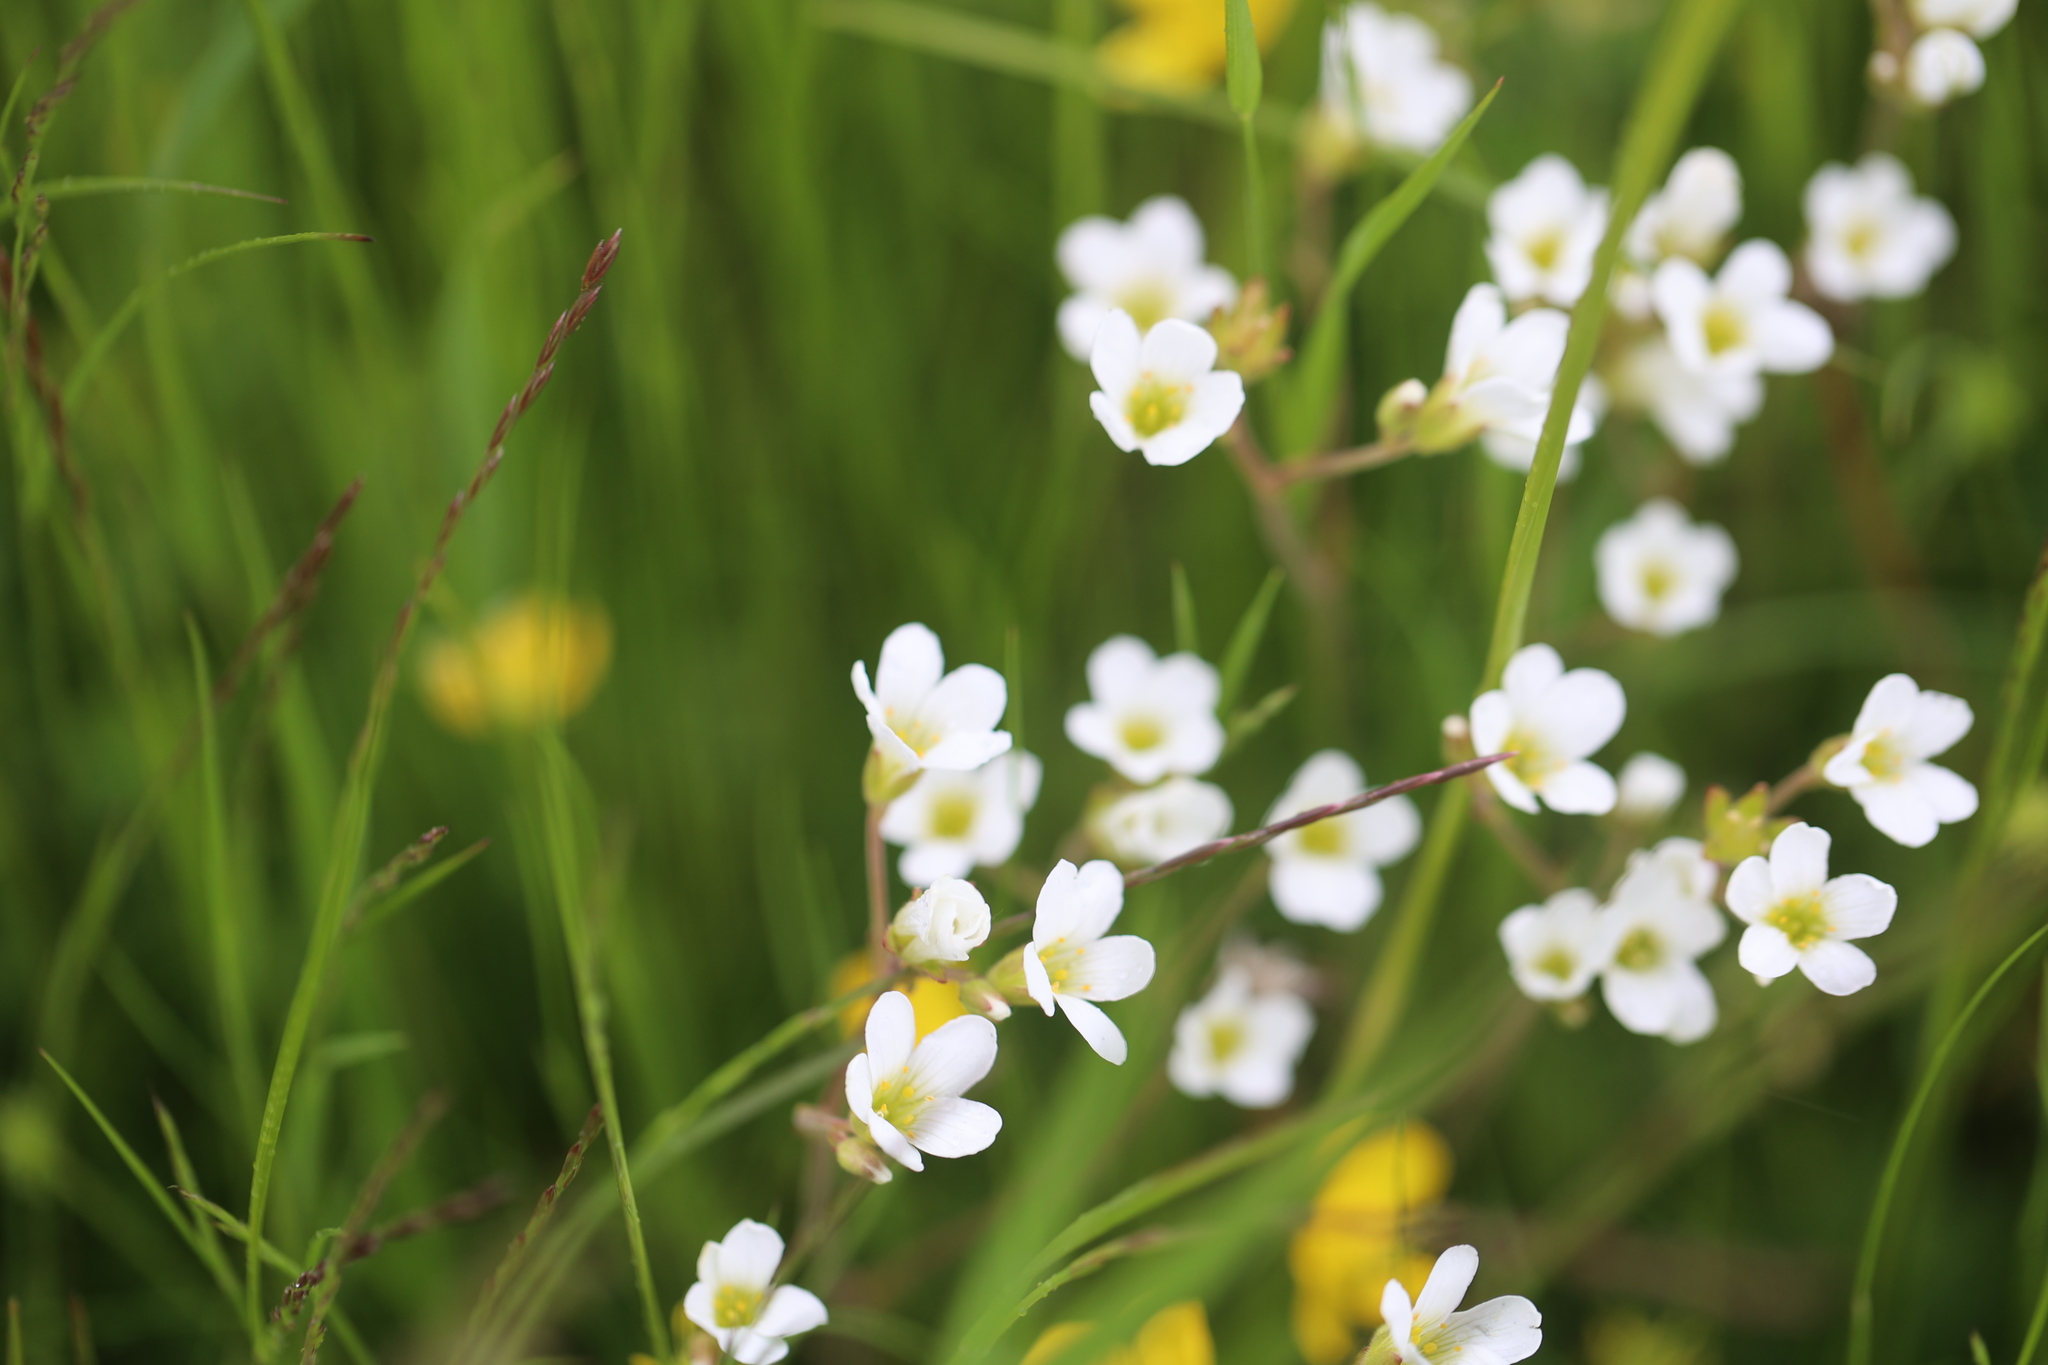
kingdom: Plantae
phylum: Tracheophyta
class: Magnoliopsida
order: Saxifragales
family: Saxifragaceae
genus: Saxifraga
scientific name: Saxifraga granulata
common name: Meadow saxifrage
